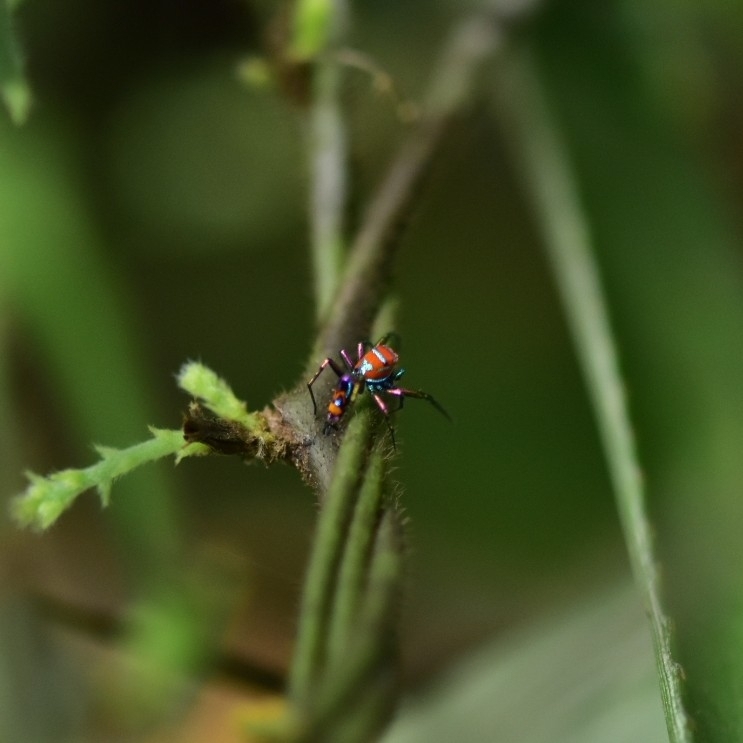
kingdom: Animalia
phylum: Arthropoda
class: Arachnida
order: Araneae
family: Salticidae
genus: Chrysilla
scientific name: Chrysilla volupe
